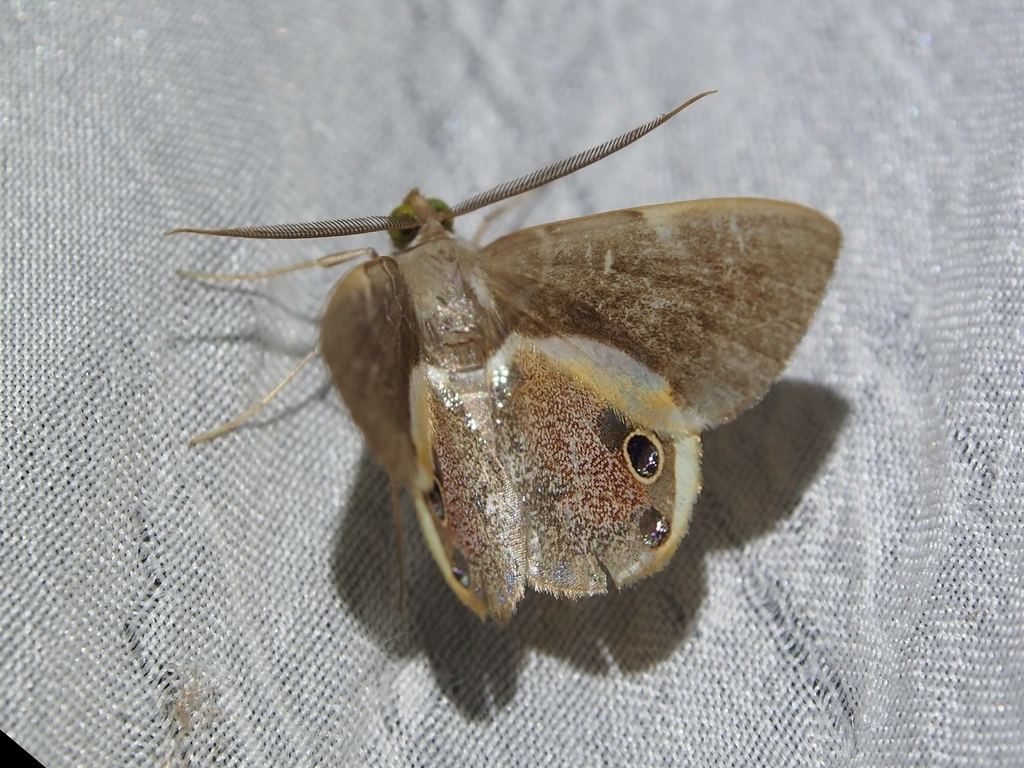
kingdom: Animalia
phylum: Arthropoda
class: Insecta
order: Lepidoptera
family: Geometridae
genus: Opisthoxia
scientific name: Opisthoxia formosante
